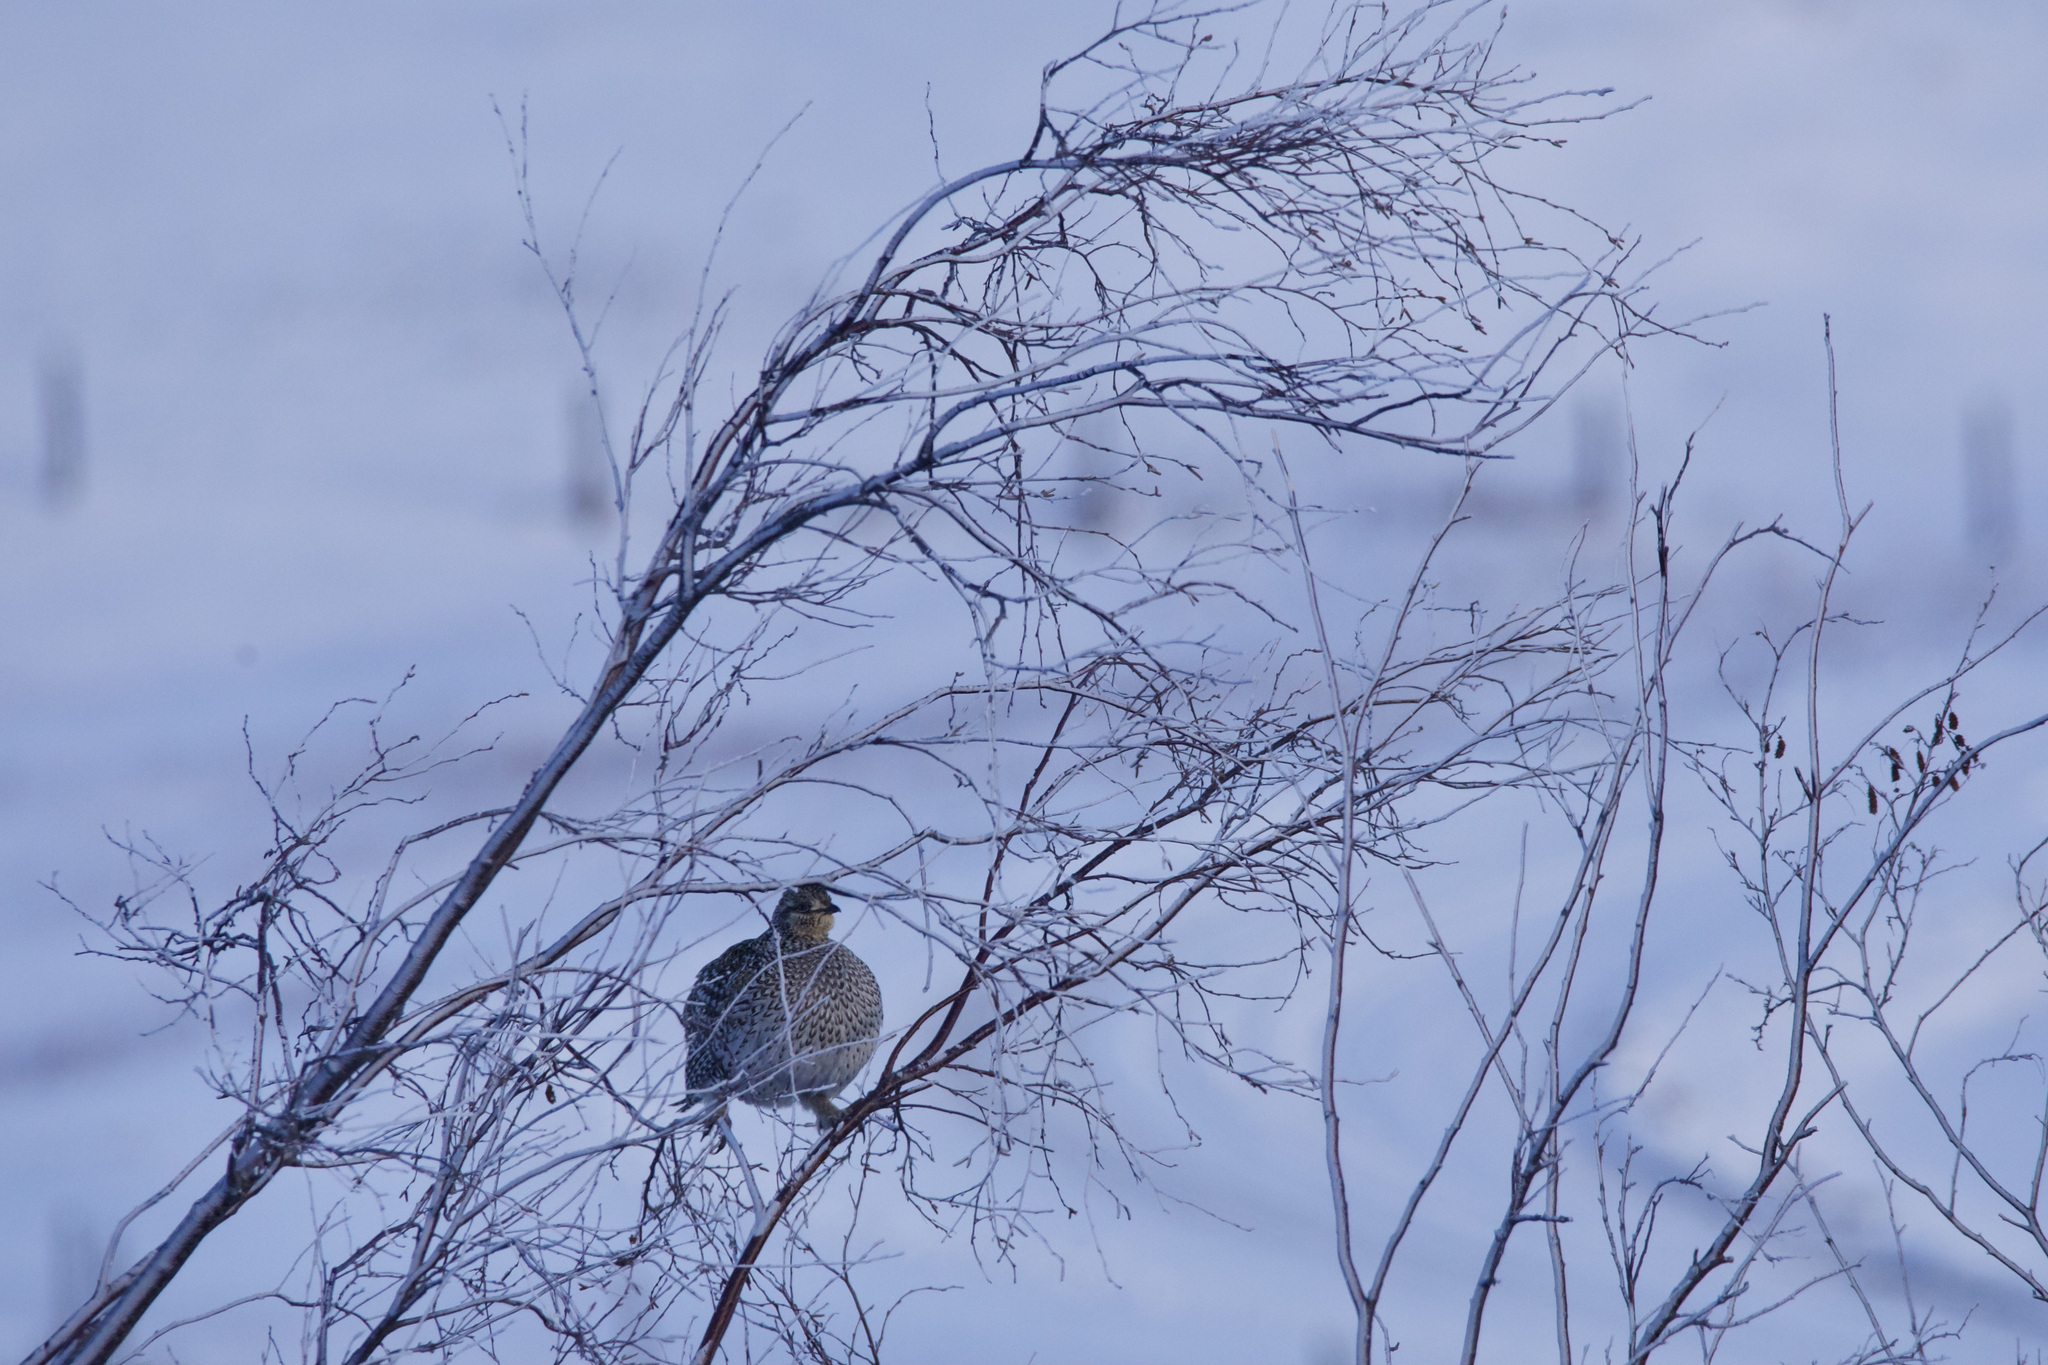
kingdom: Animalia
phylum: Chordata
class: Aves
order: Galliformes
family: Phasianidae
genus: Tympanuchus
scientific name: Tympanuchus phasianellus
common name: Sharp-tailed grouse
